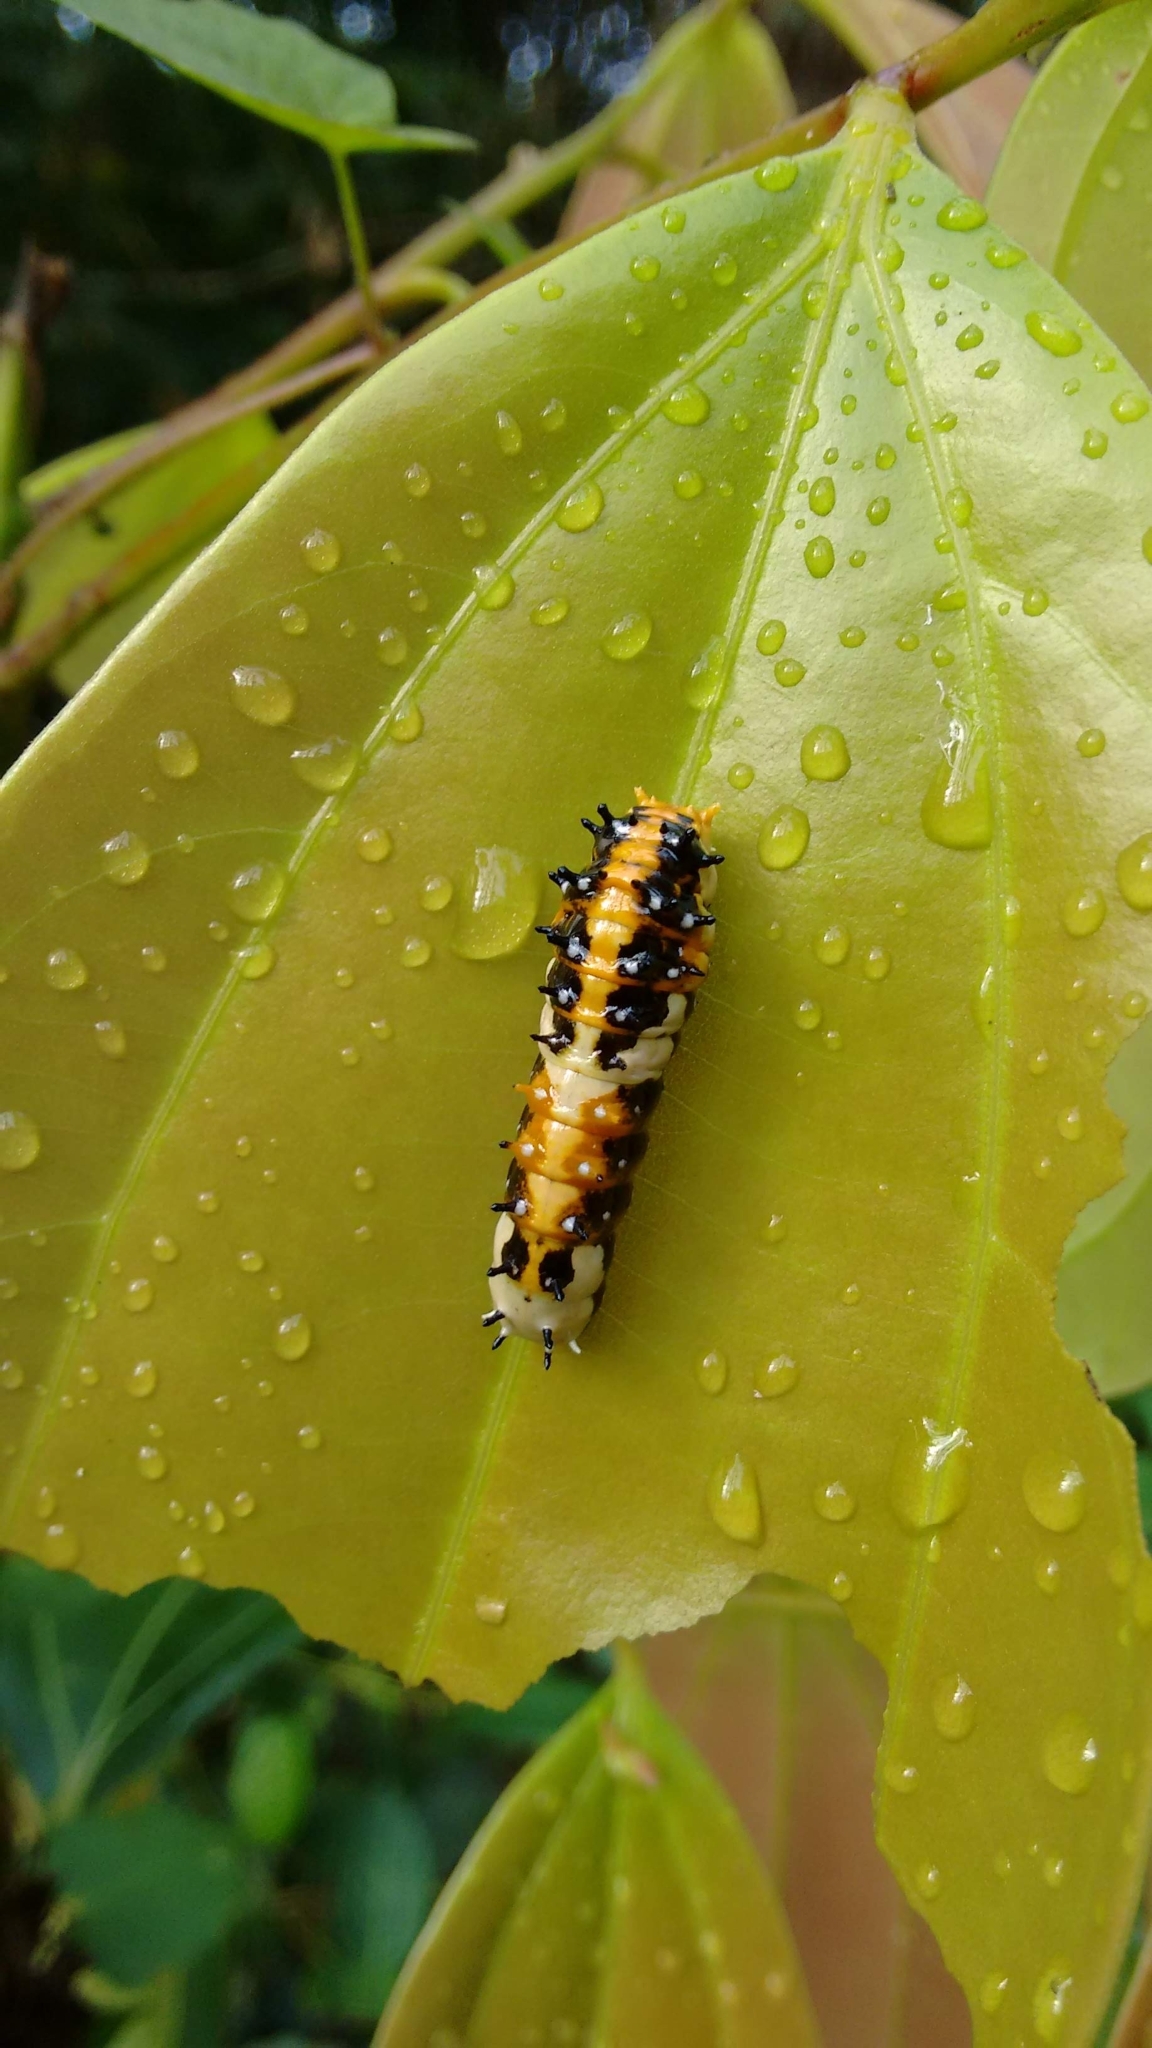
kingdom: Animalia
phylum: Arthropoda
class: Insecta
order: Lepidoptera
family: Papilionidae
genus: Chilasa
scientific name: Chilasa clytia
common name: Common mime
